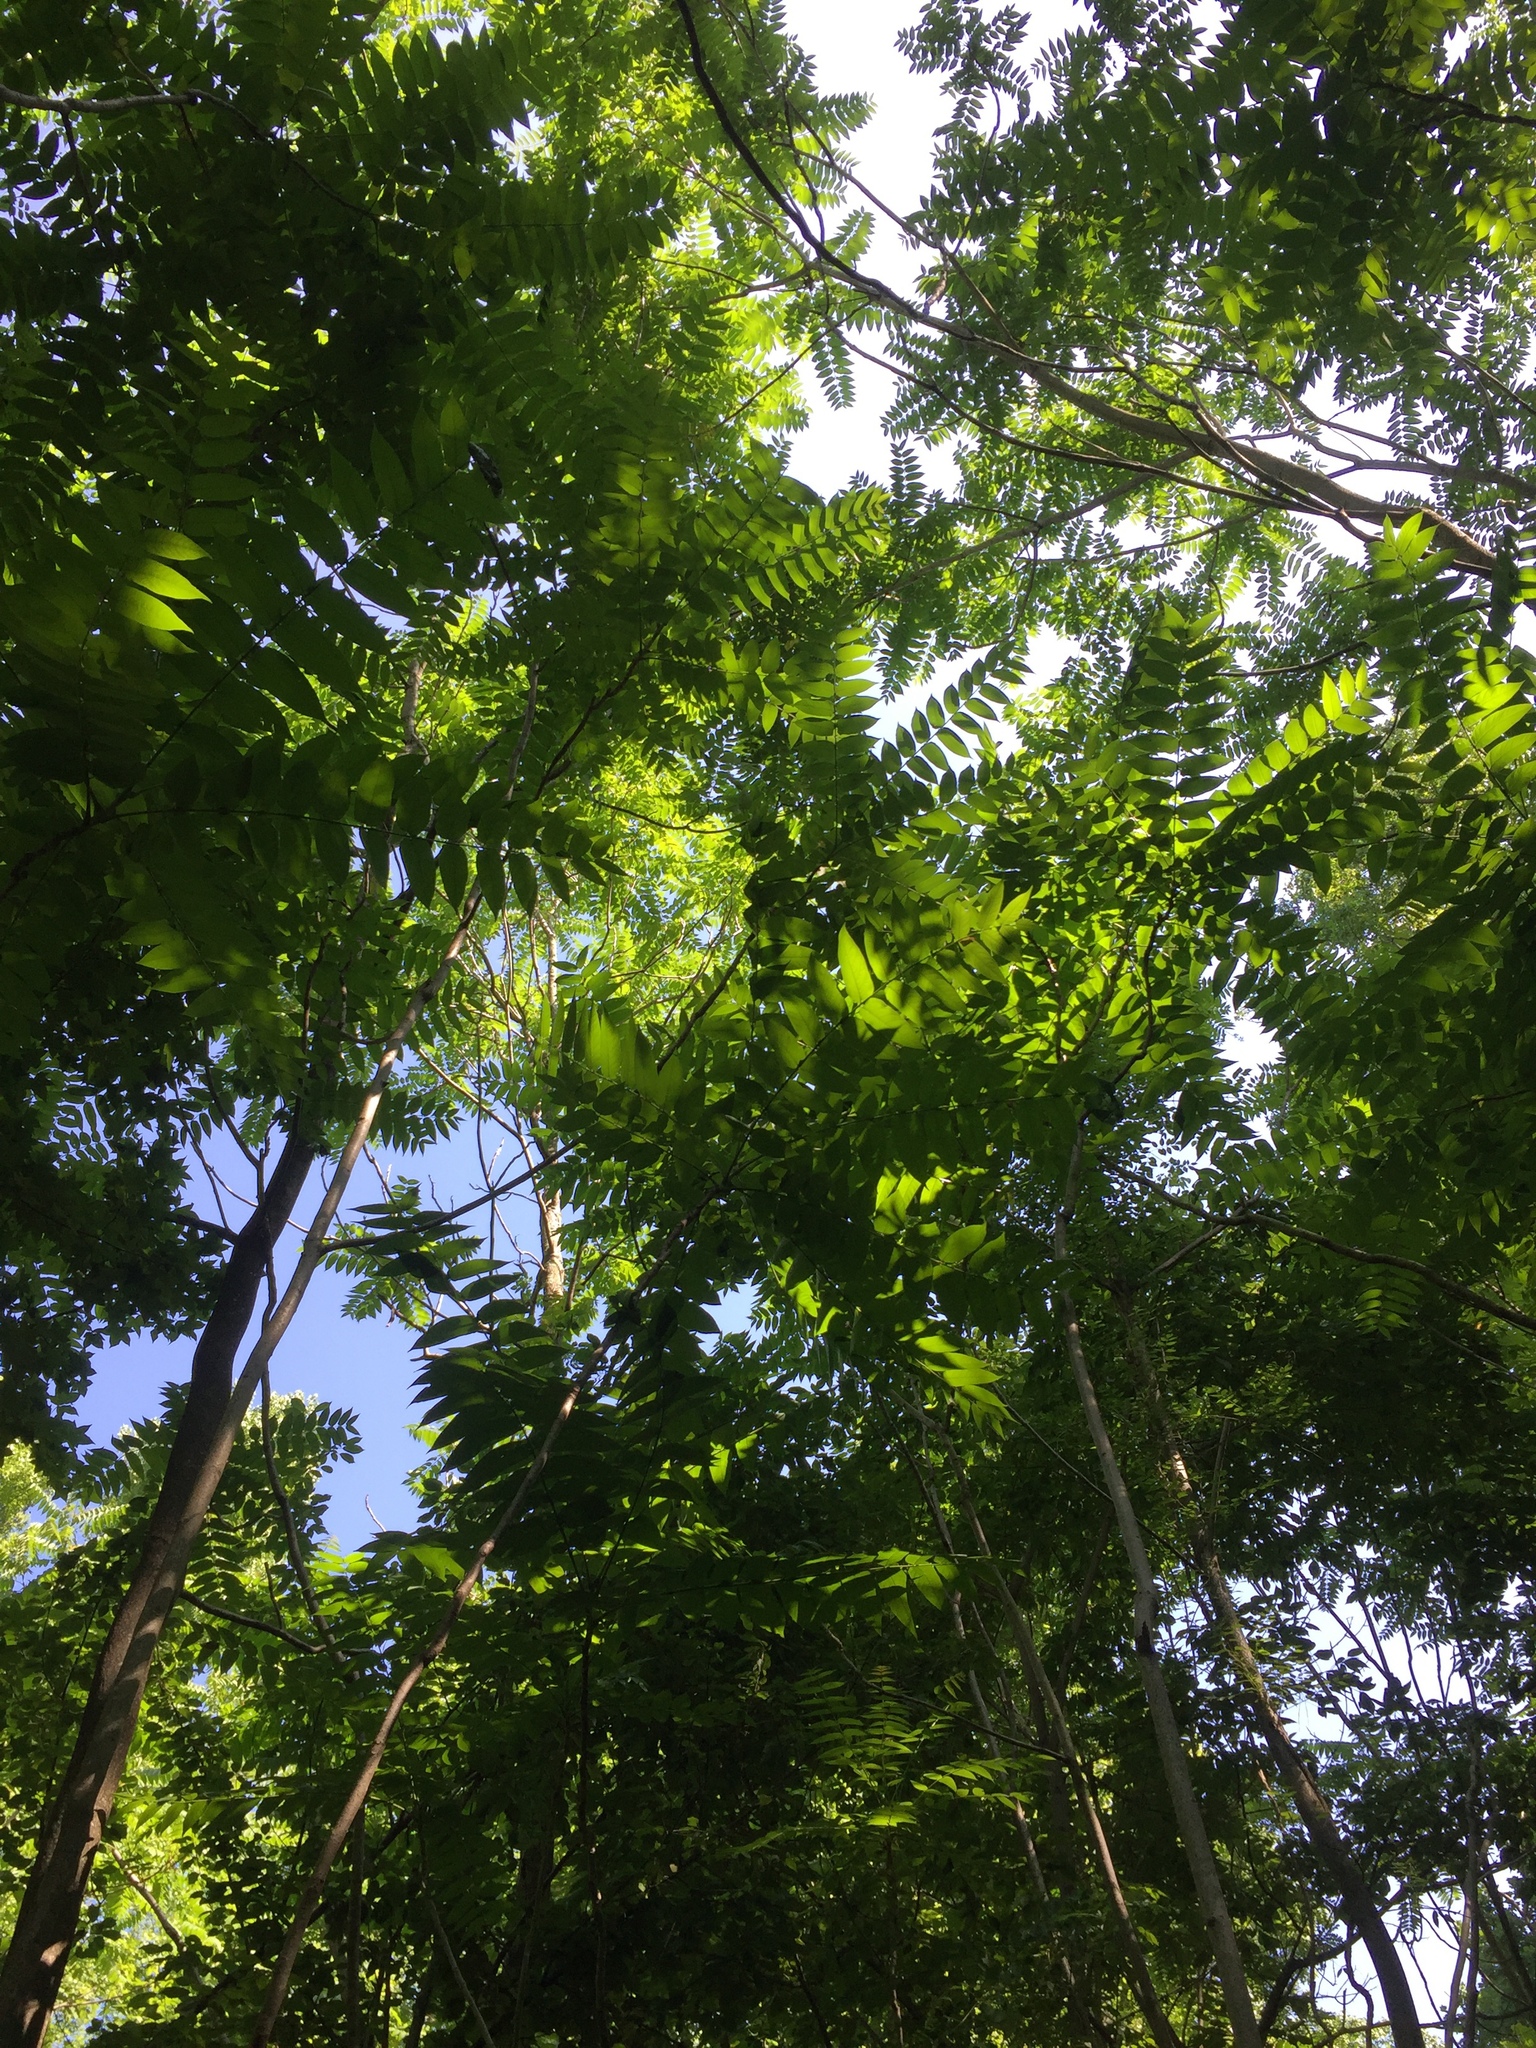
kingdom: Plantae
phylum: Tracheophyta
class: Magnoliopsida
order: Sapindales
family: Simaroubaceae
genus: Ailanthus
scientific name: Ailanthus altissima
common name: Tree-of-heaven
